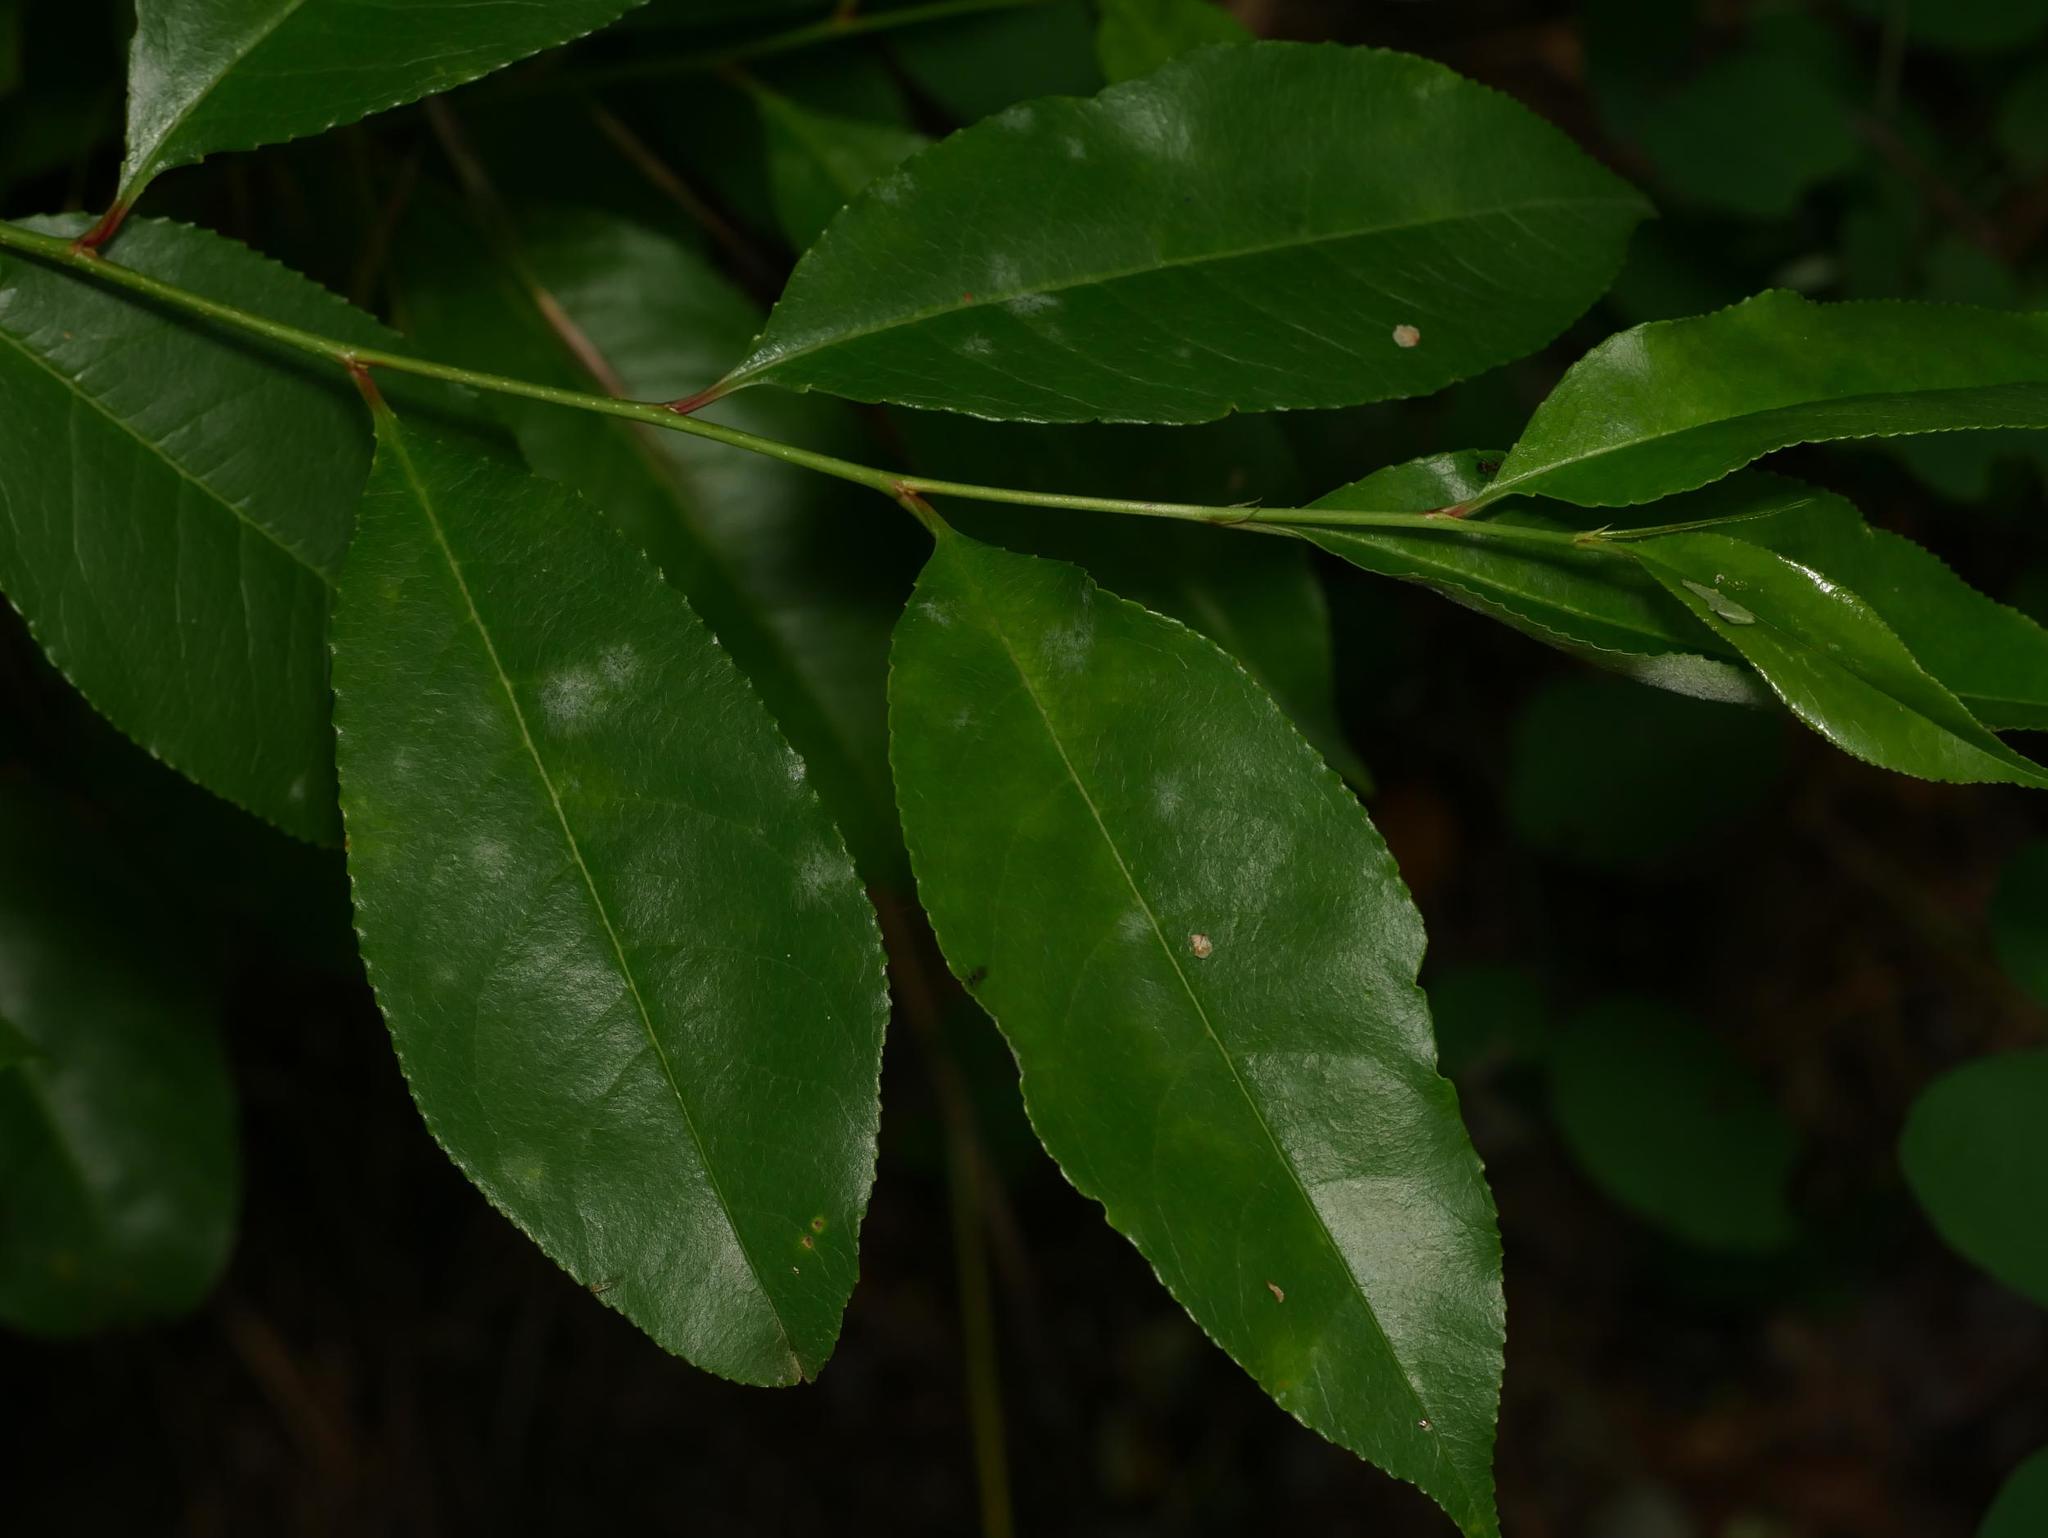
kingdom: Plantae
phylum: Tracheophyta
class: Magnoliopsida
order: Rosales
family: Rosaceae
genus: Prunus
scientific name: Prunus serotina
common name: Black cherry
